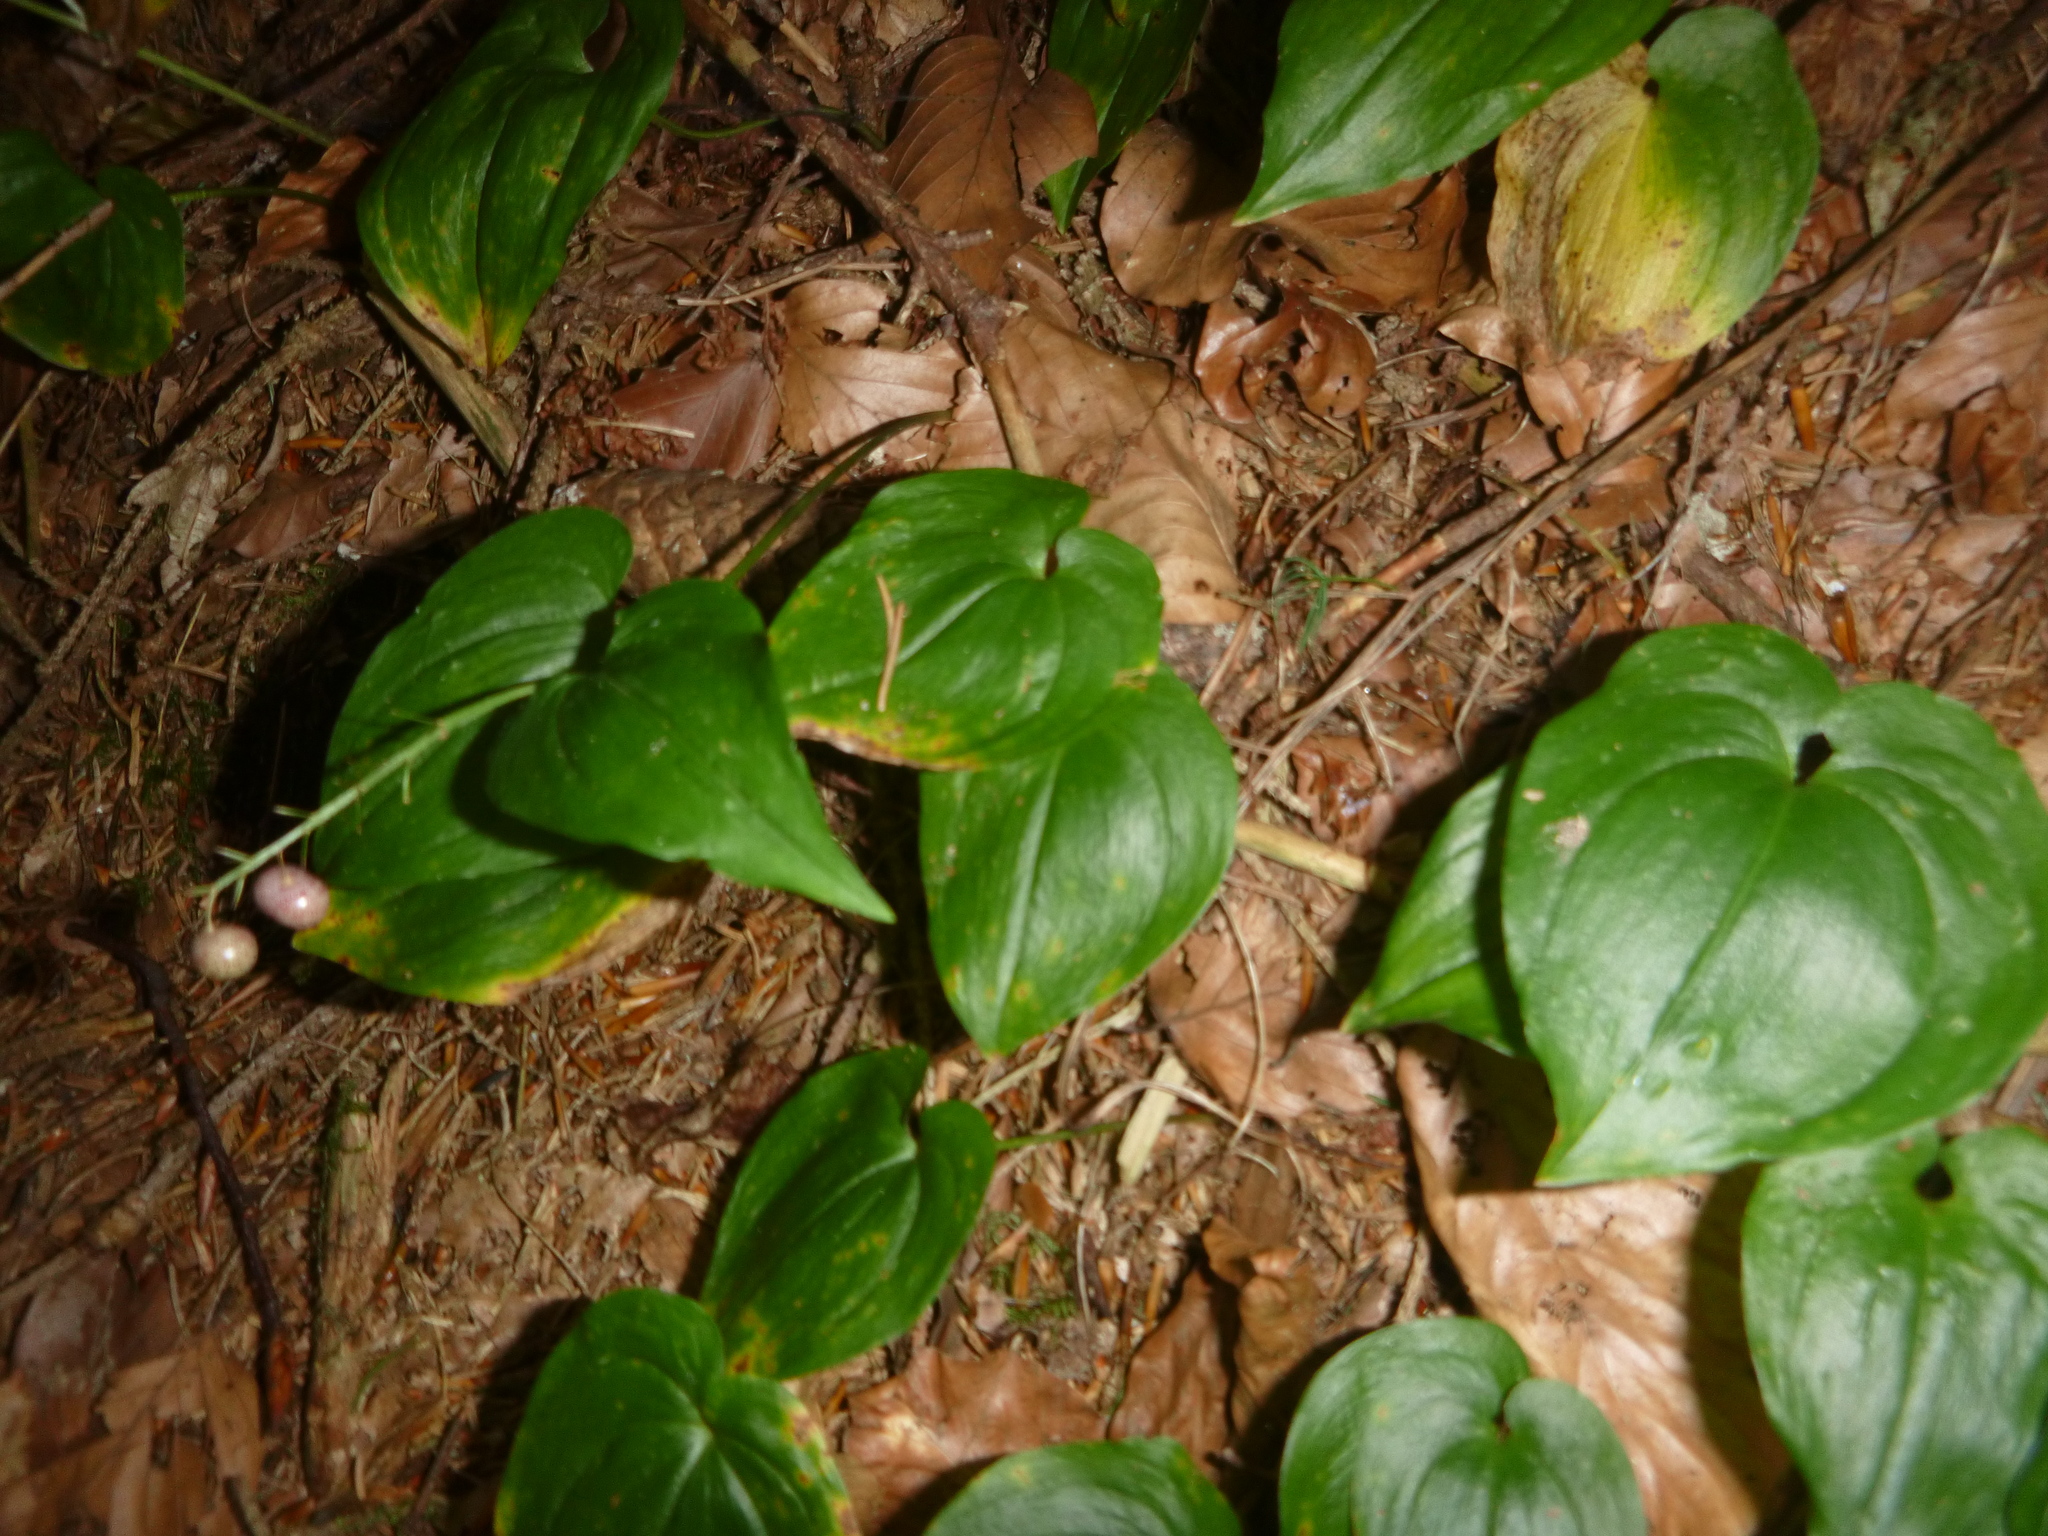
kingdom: Plantae
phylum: Tracheophyta
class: Liliopsida
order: Asparagales
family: Asparagaceae
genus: Maianthemum
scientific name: Maianthemum bifolium
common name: May lily
